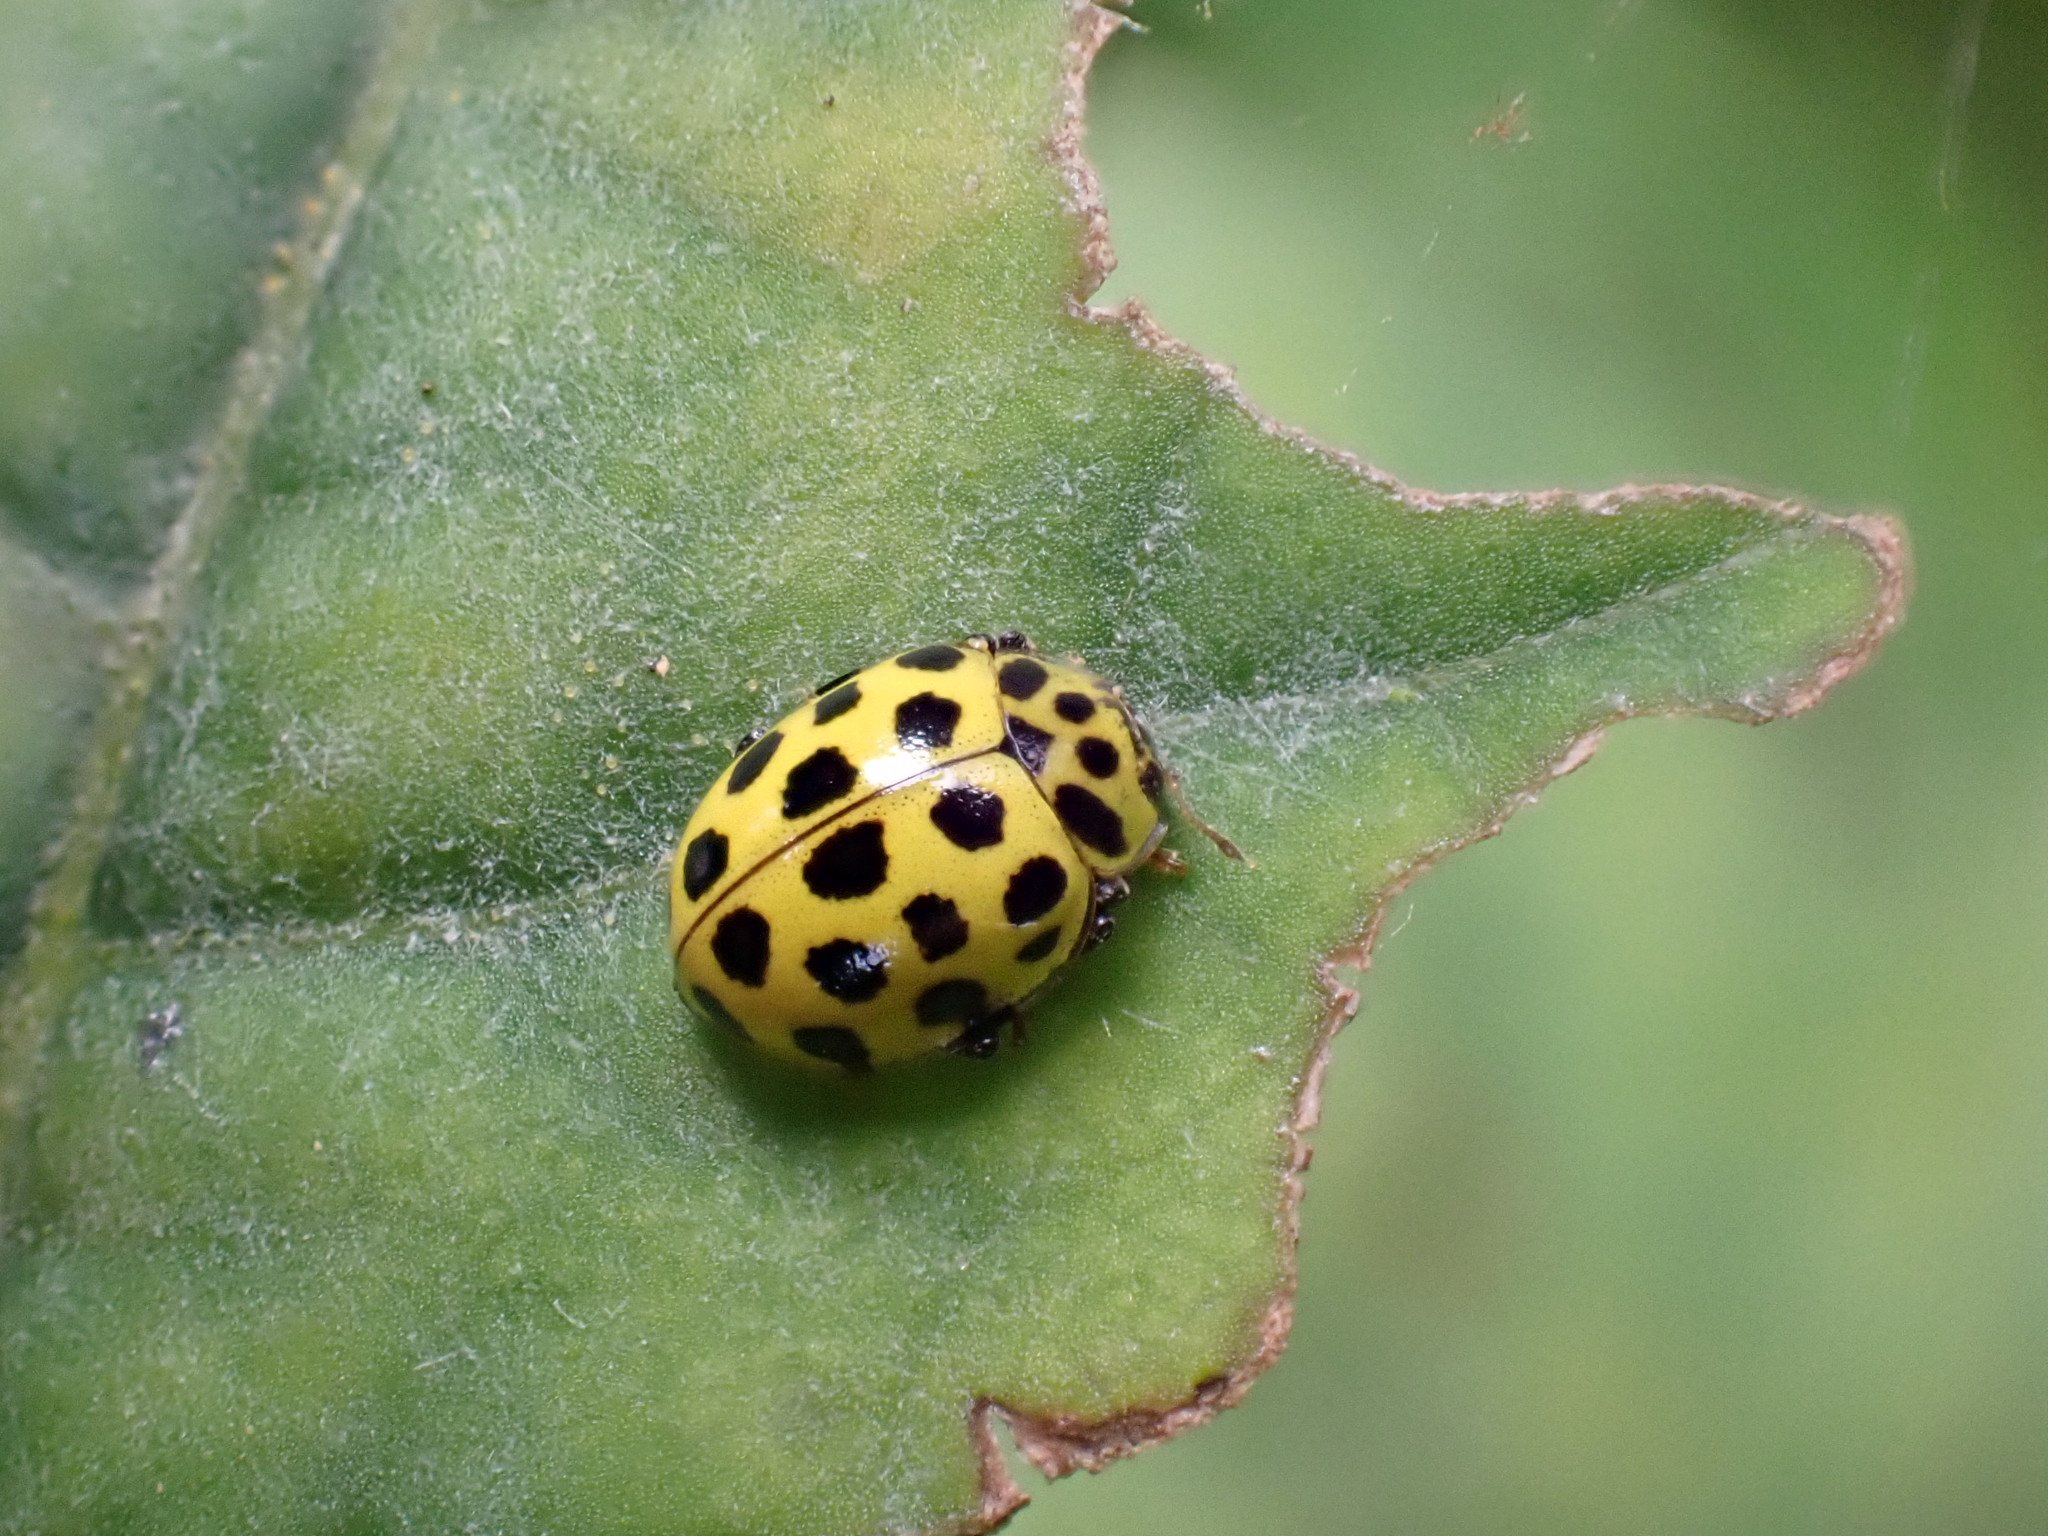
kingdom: Animalia
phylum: Arthropoda
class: Insecta
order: Coleoptera
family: Coccinellidae
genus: Psyllobora
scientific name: Psyllobora vigintiduopunctata
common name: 22-spot ladybird
